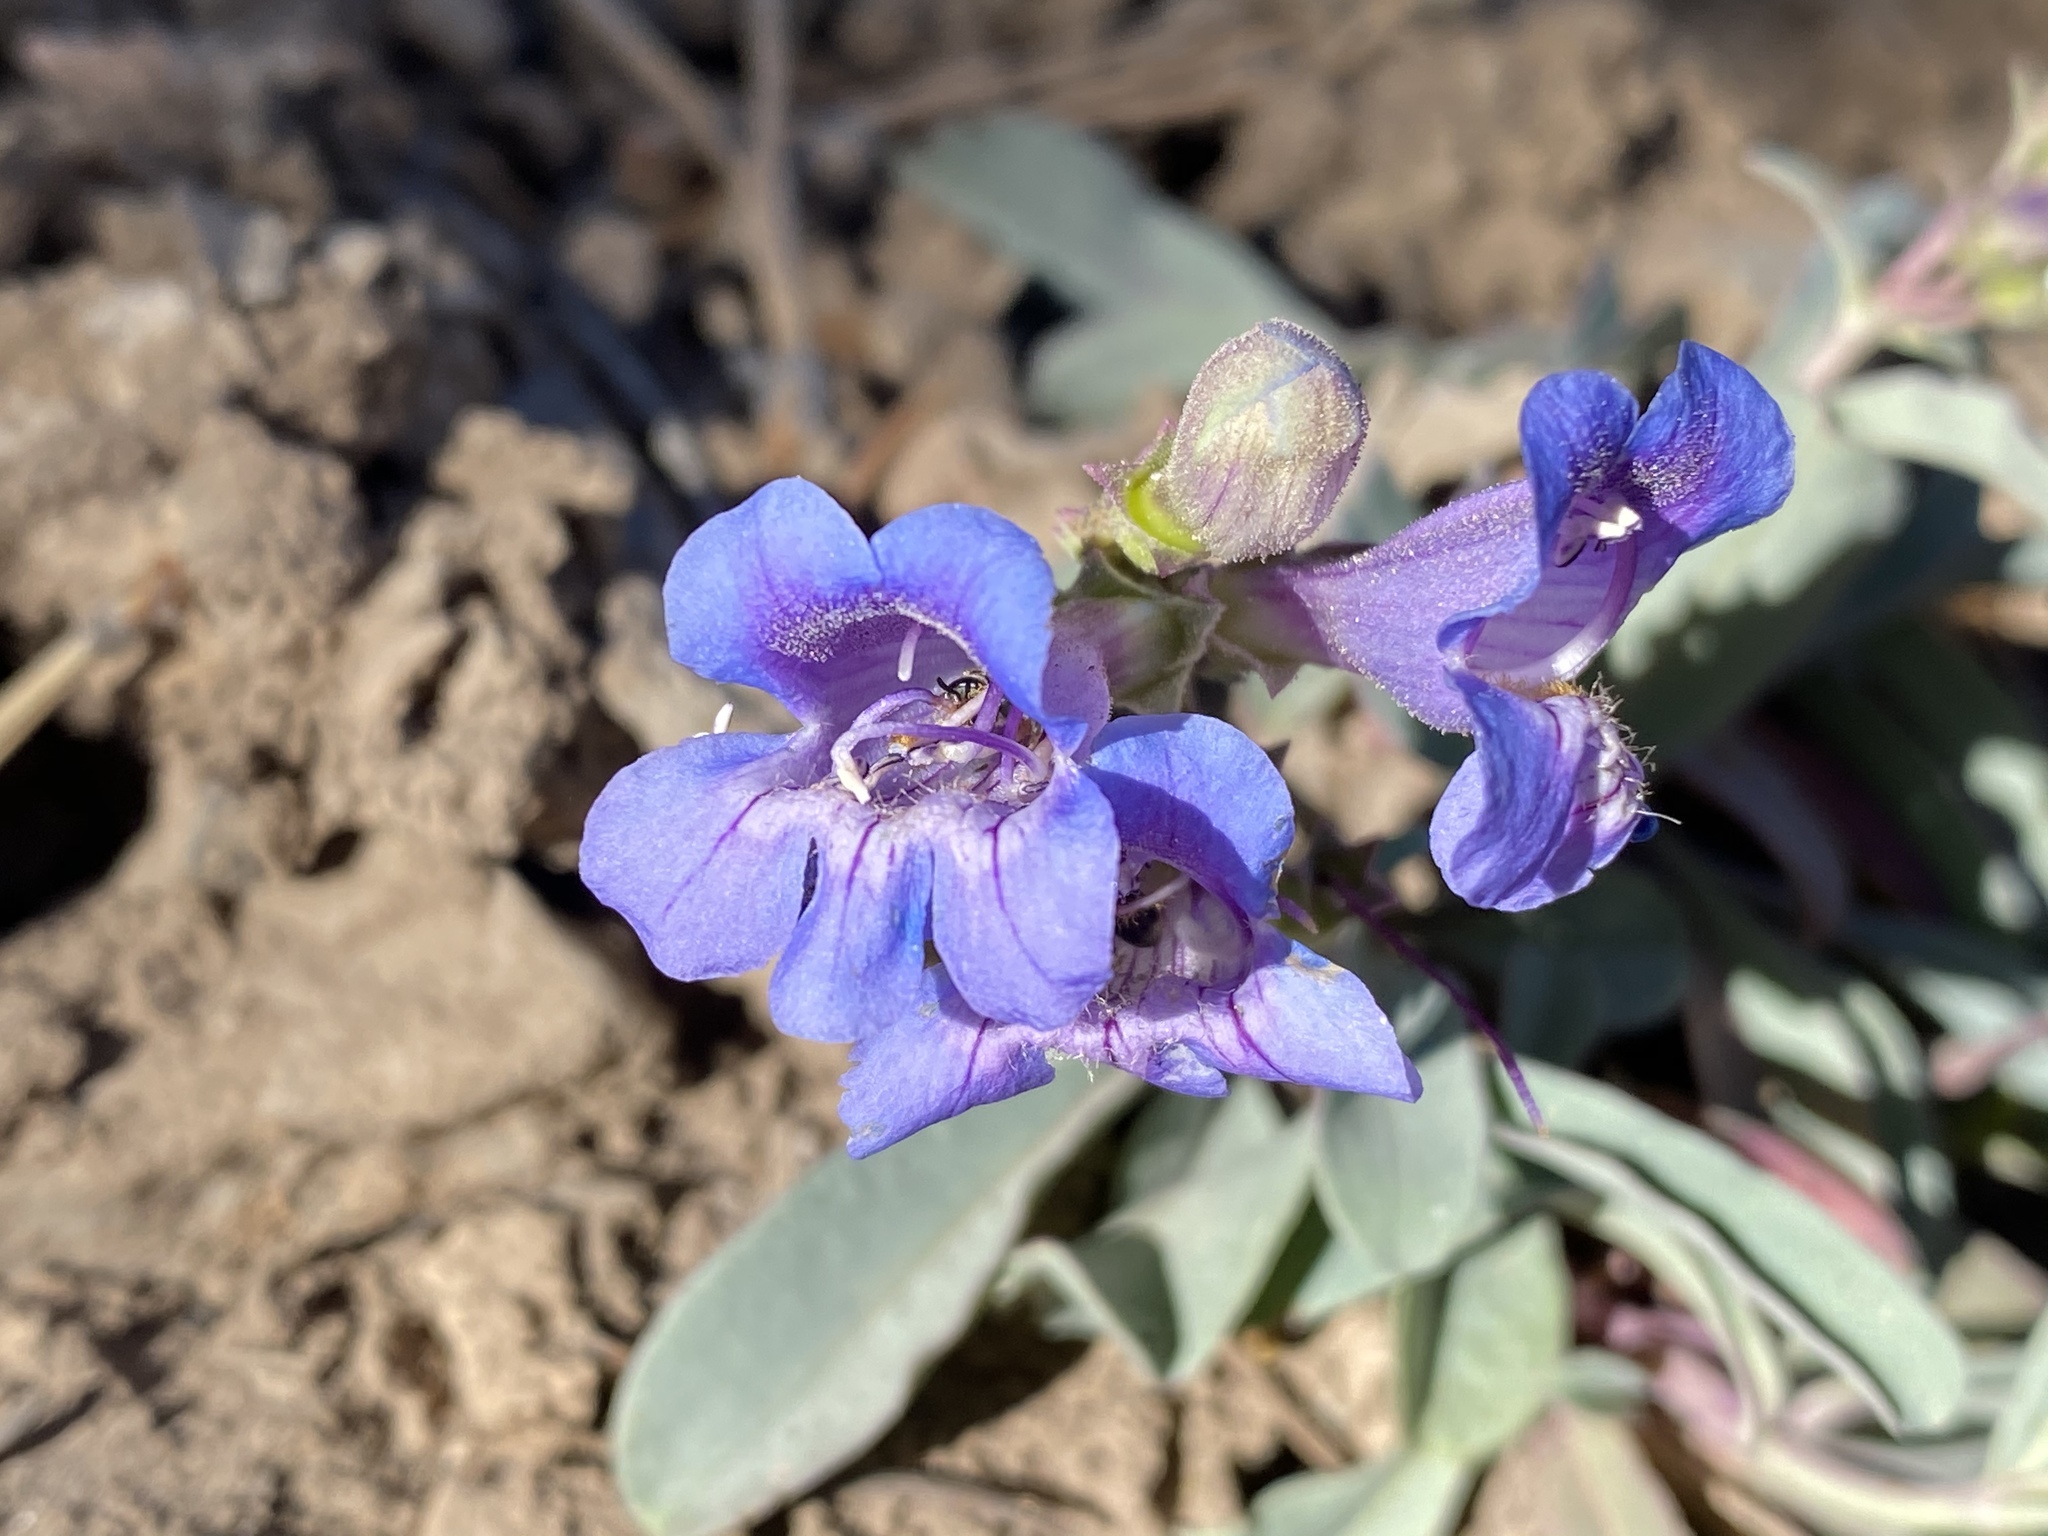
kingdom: Plantae
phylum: Tracheophyta
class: Magnoliopsida
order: Lamiales
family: Plantaginaceae
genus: Penstemon
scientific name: Penstemon leiophyllus
